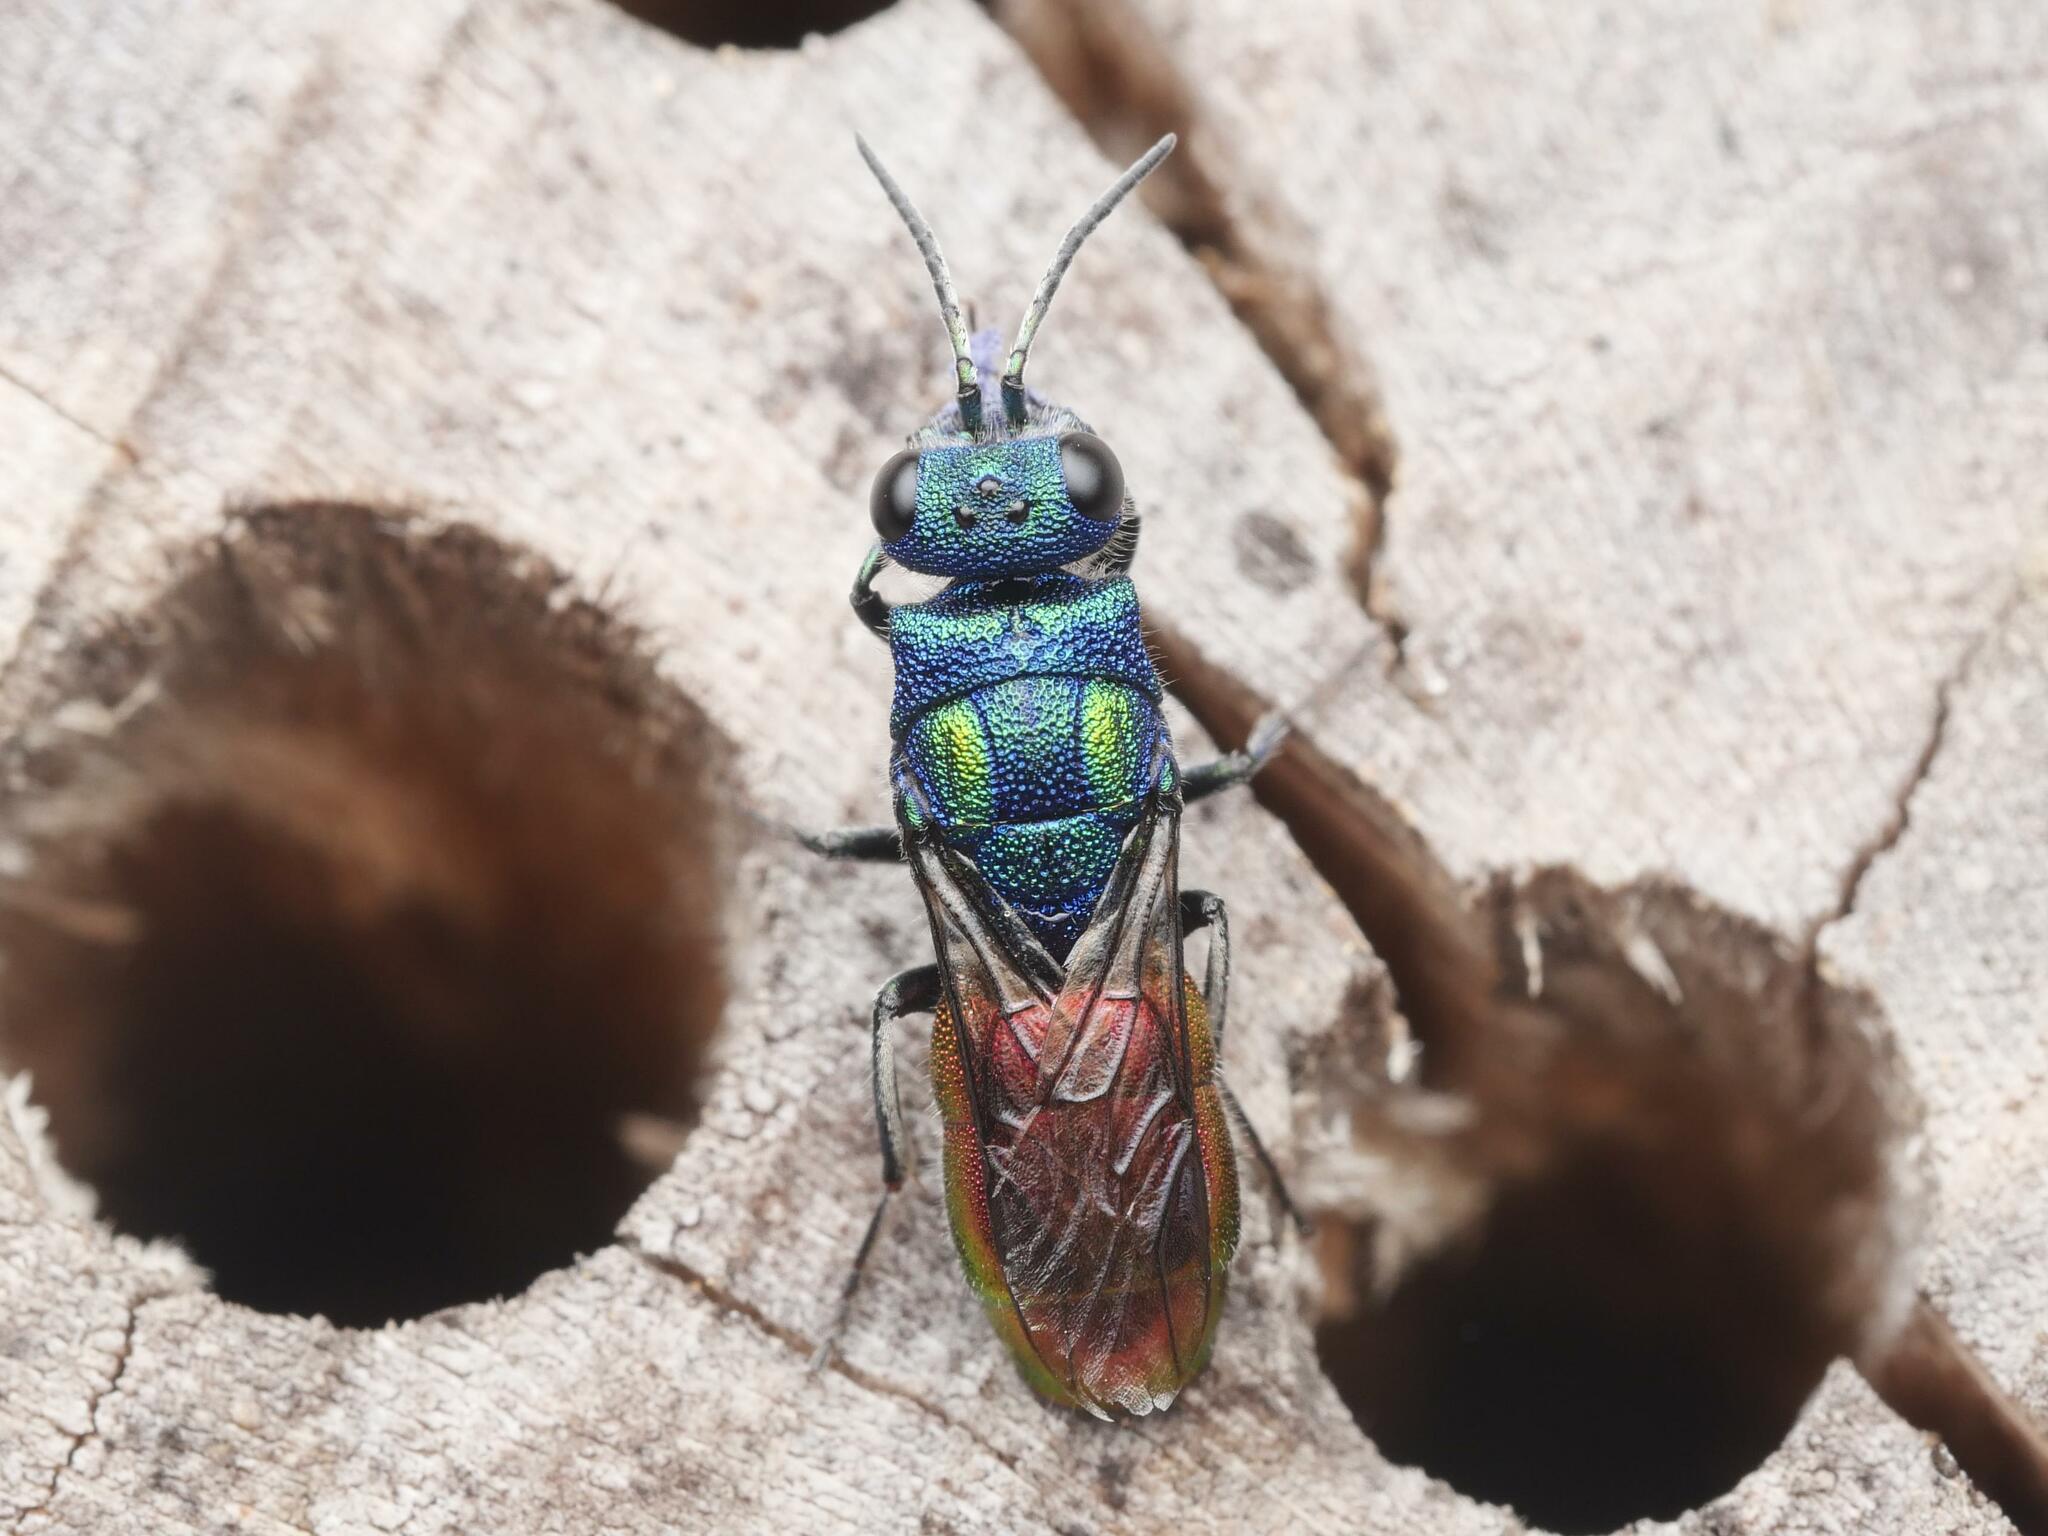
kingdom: Animalia
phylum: Arthropoda
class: Insecta
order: Hymenoptera
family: Chrysididae
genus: Chrysura
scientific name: Chrysura austriaca
